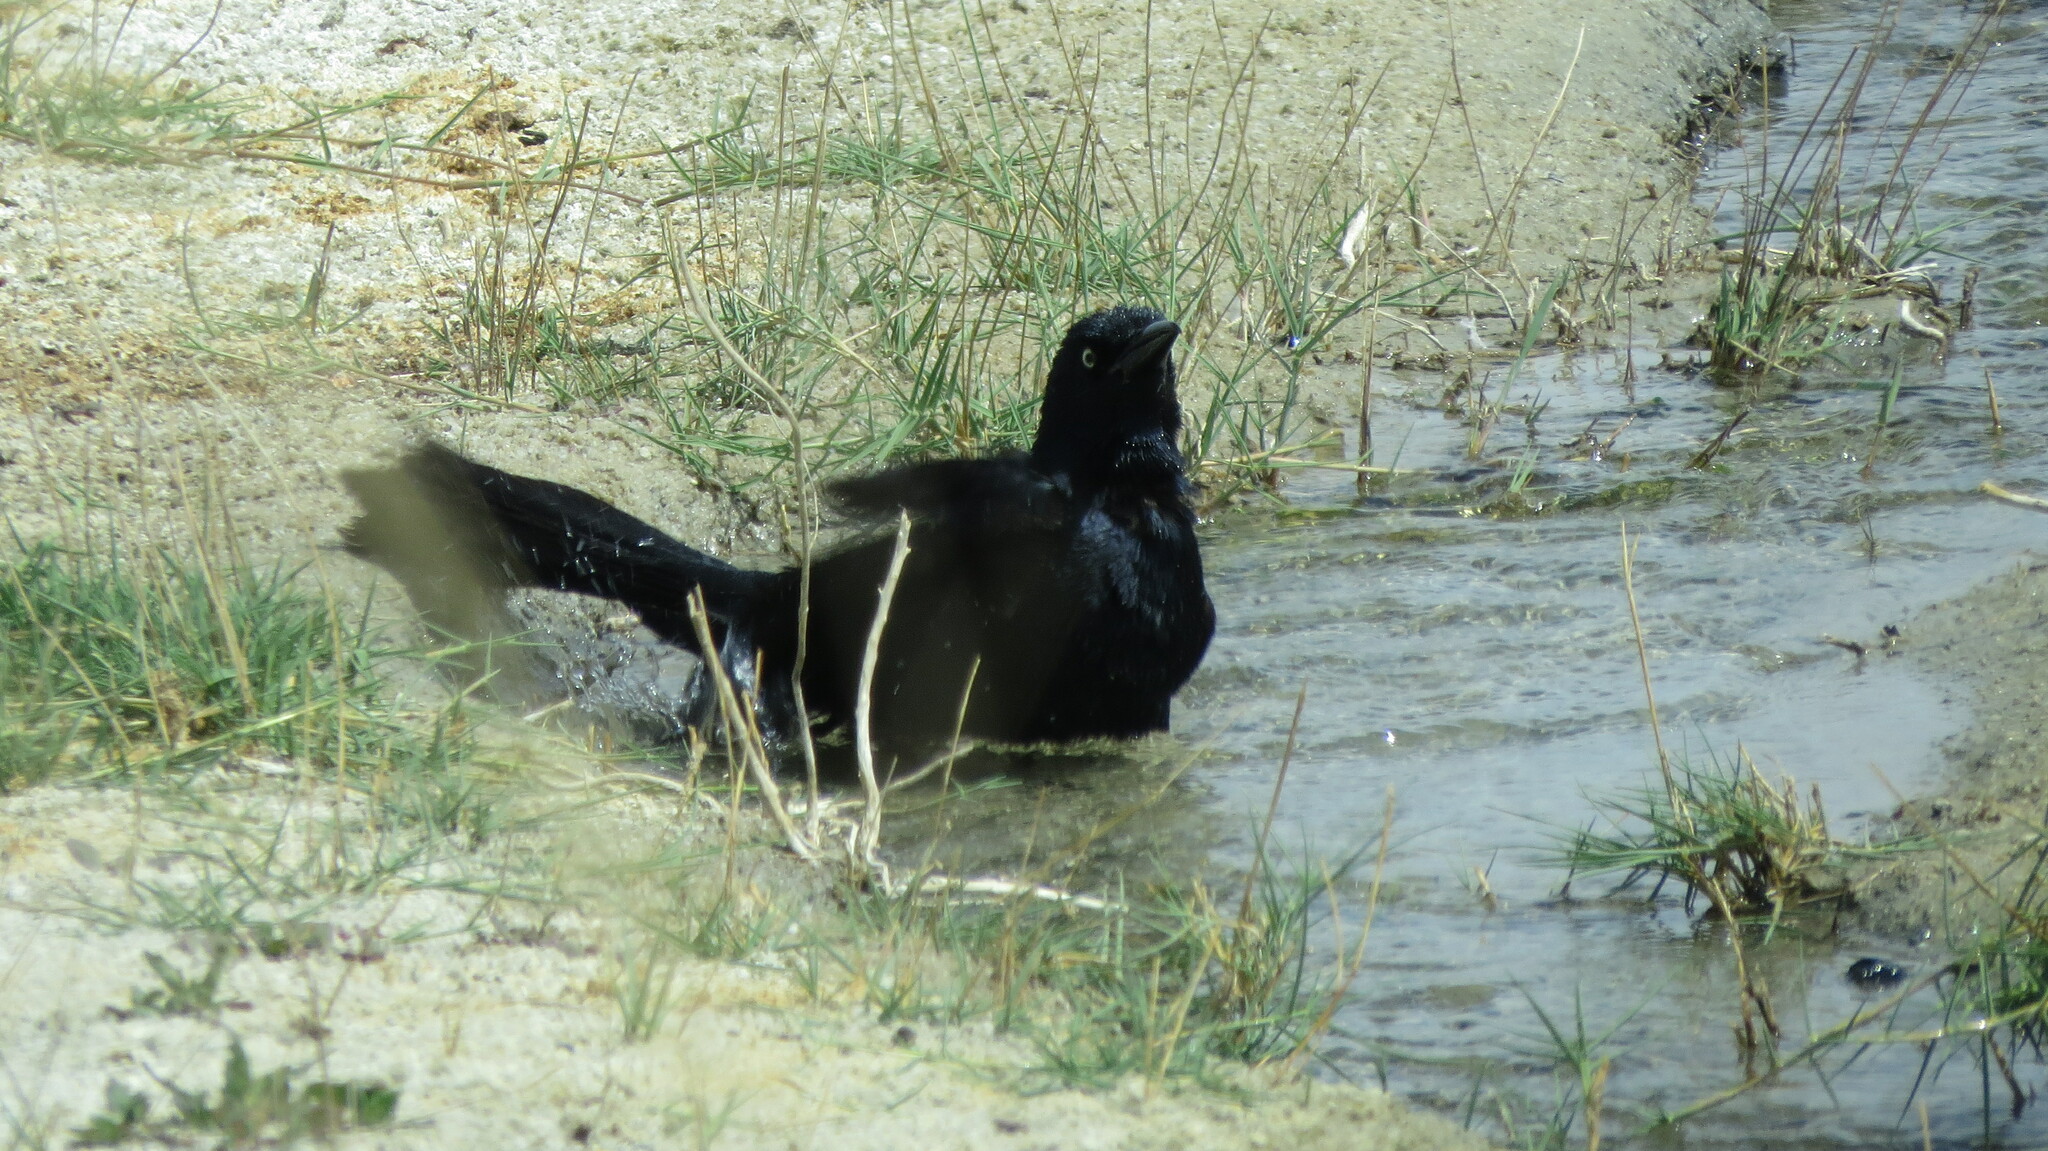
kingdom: Animalia
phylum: Chordata
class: Aves
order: Passeriformes
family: Icteridae
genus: Quiscalus
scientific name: Quiscalus mexicanus
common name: Great-tailed grackle
